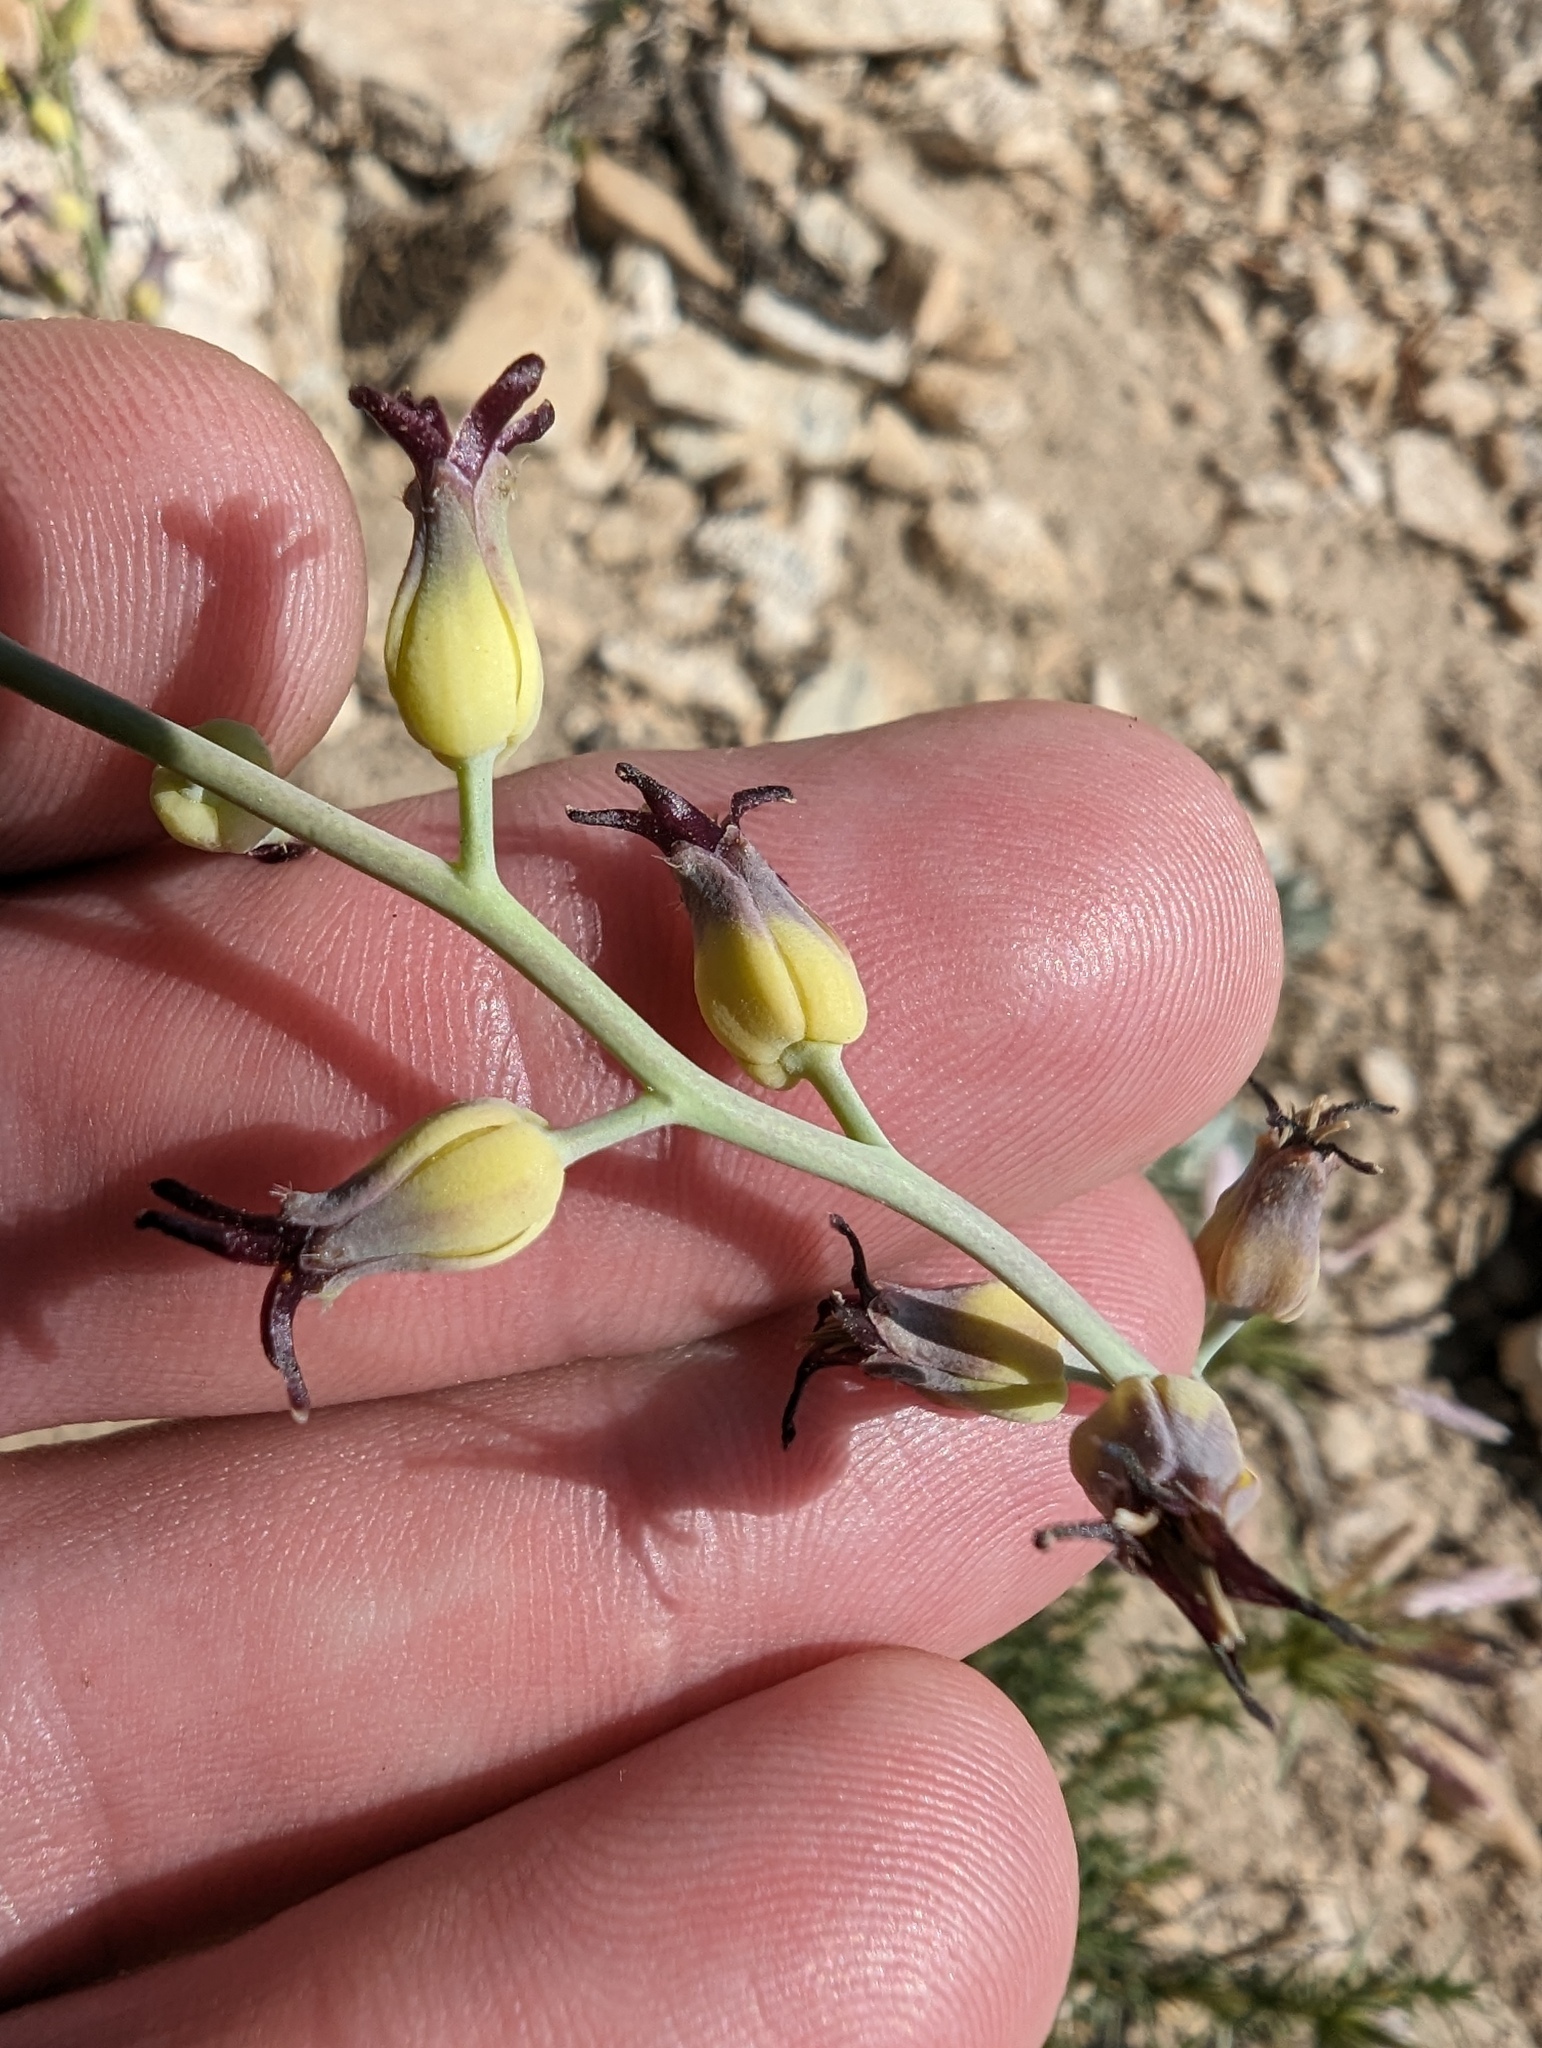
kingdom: Plantae
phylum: Tracheophyta
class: Magnoliopsida
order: Brassicales
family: Brassicaceae
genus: Streptanthus
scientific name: Streptanthus cordatus
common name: Heart-leaf jewel-flower
